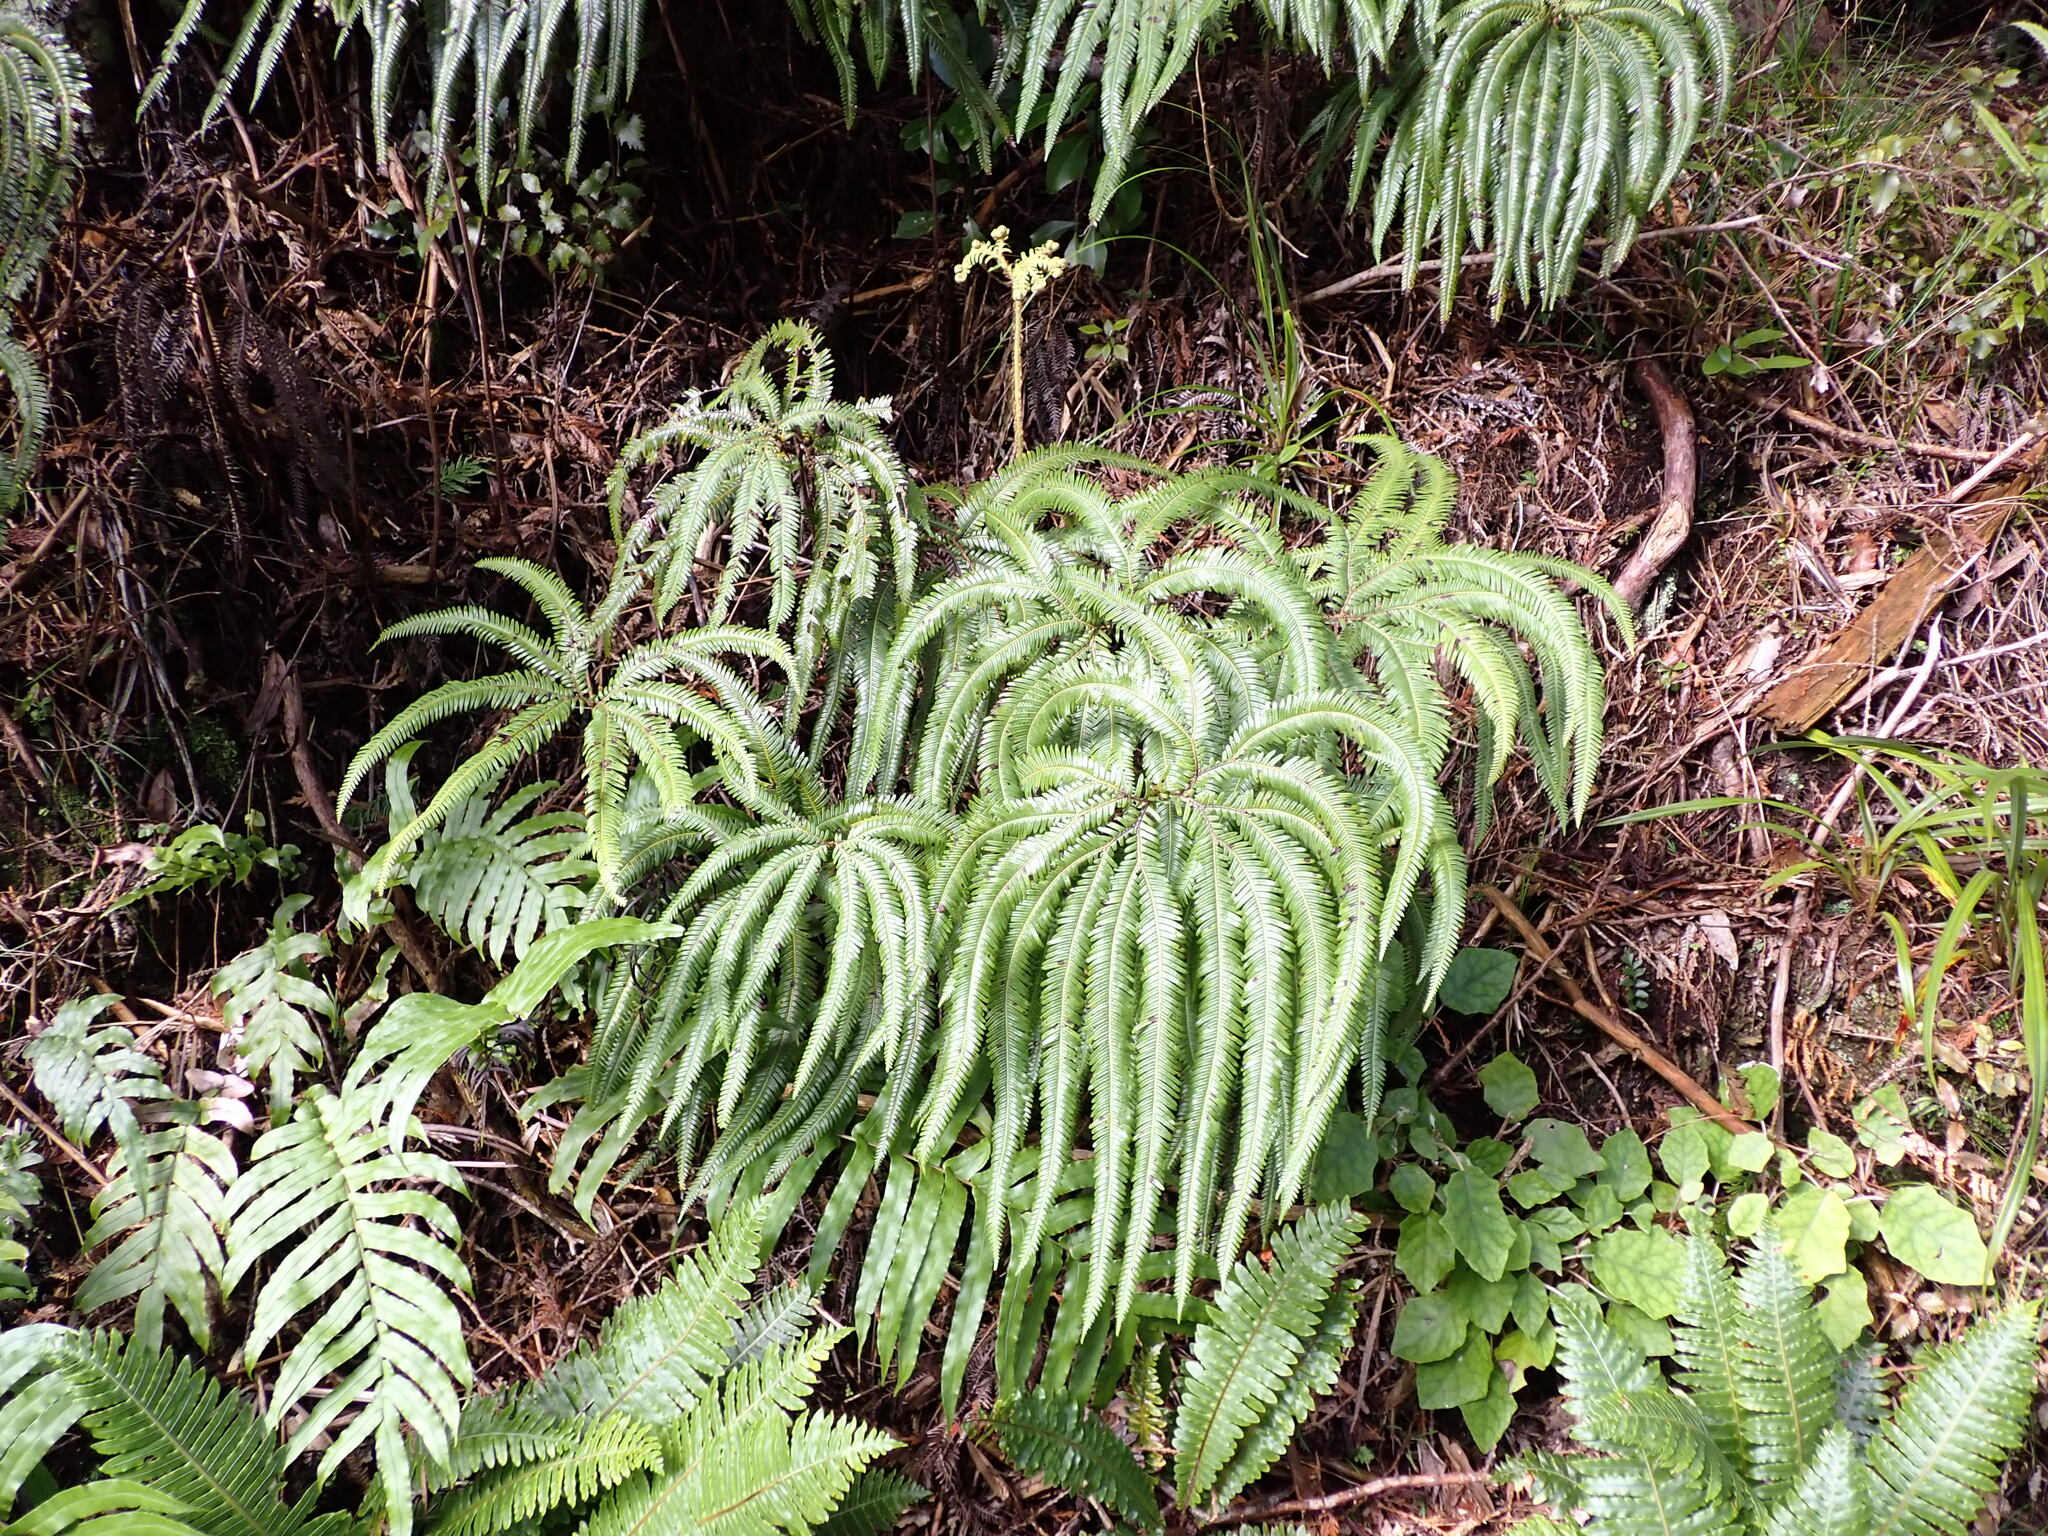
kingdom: Plantae
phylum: Tracheophyta
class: Polypodiopsida
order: Gleicheniales
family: Gleicheniaceae
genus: Sticherus
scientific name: Sticherus cunninghamii
